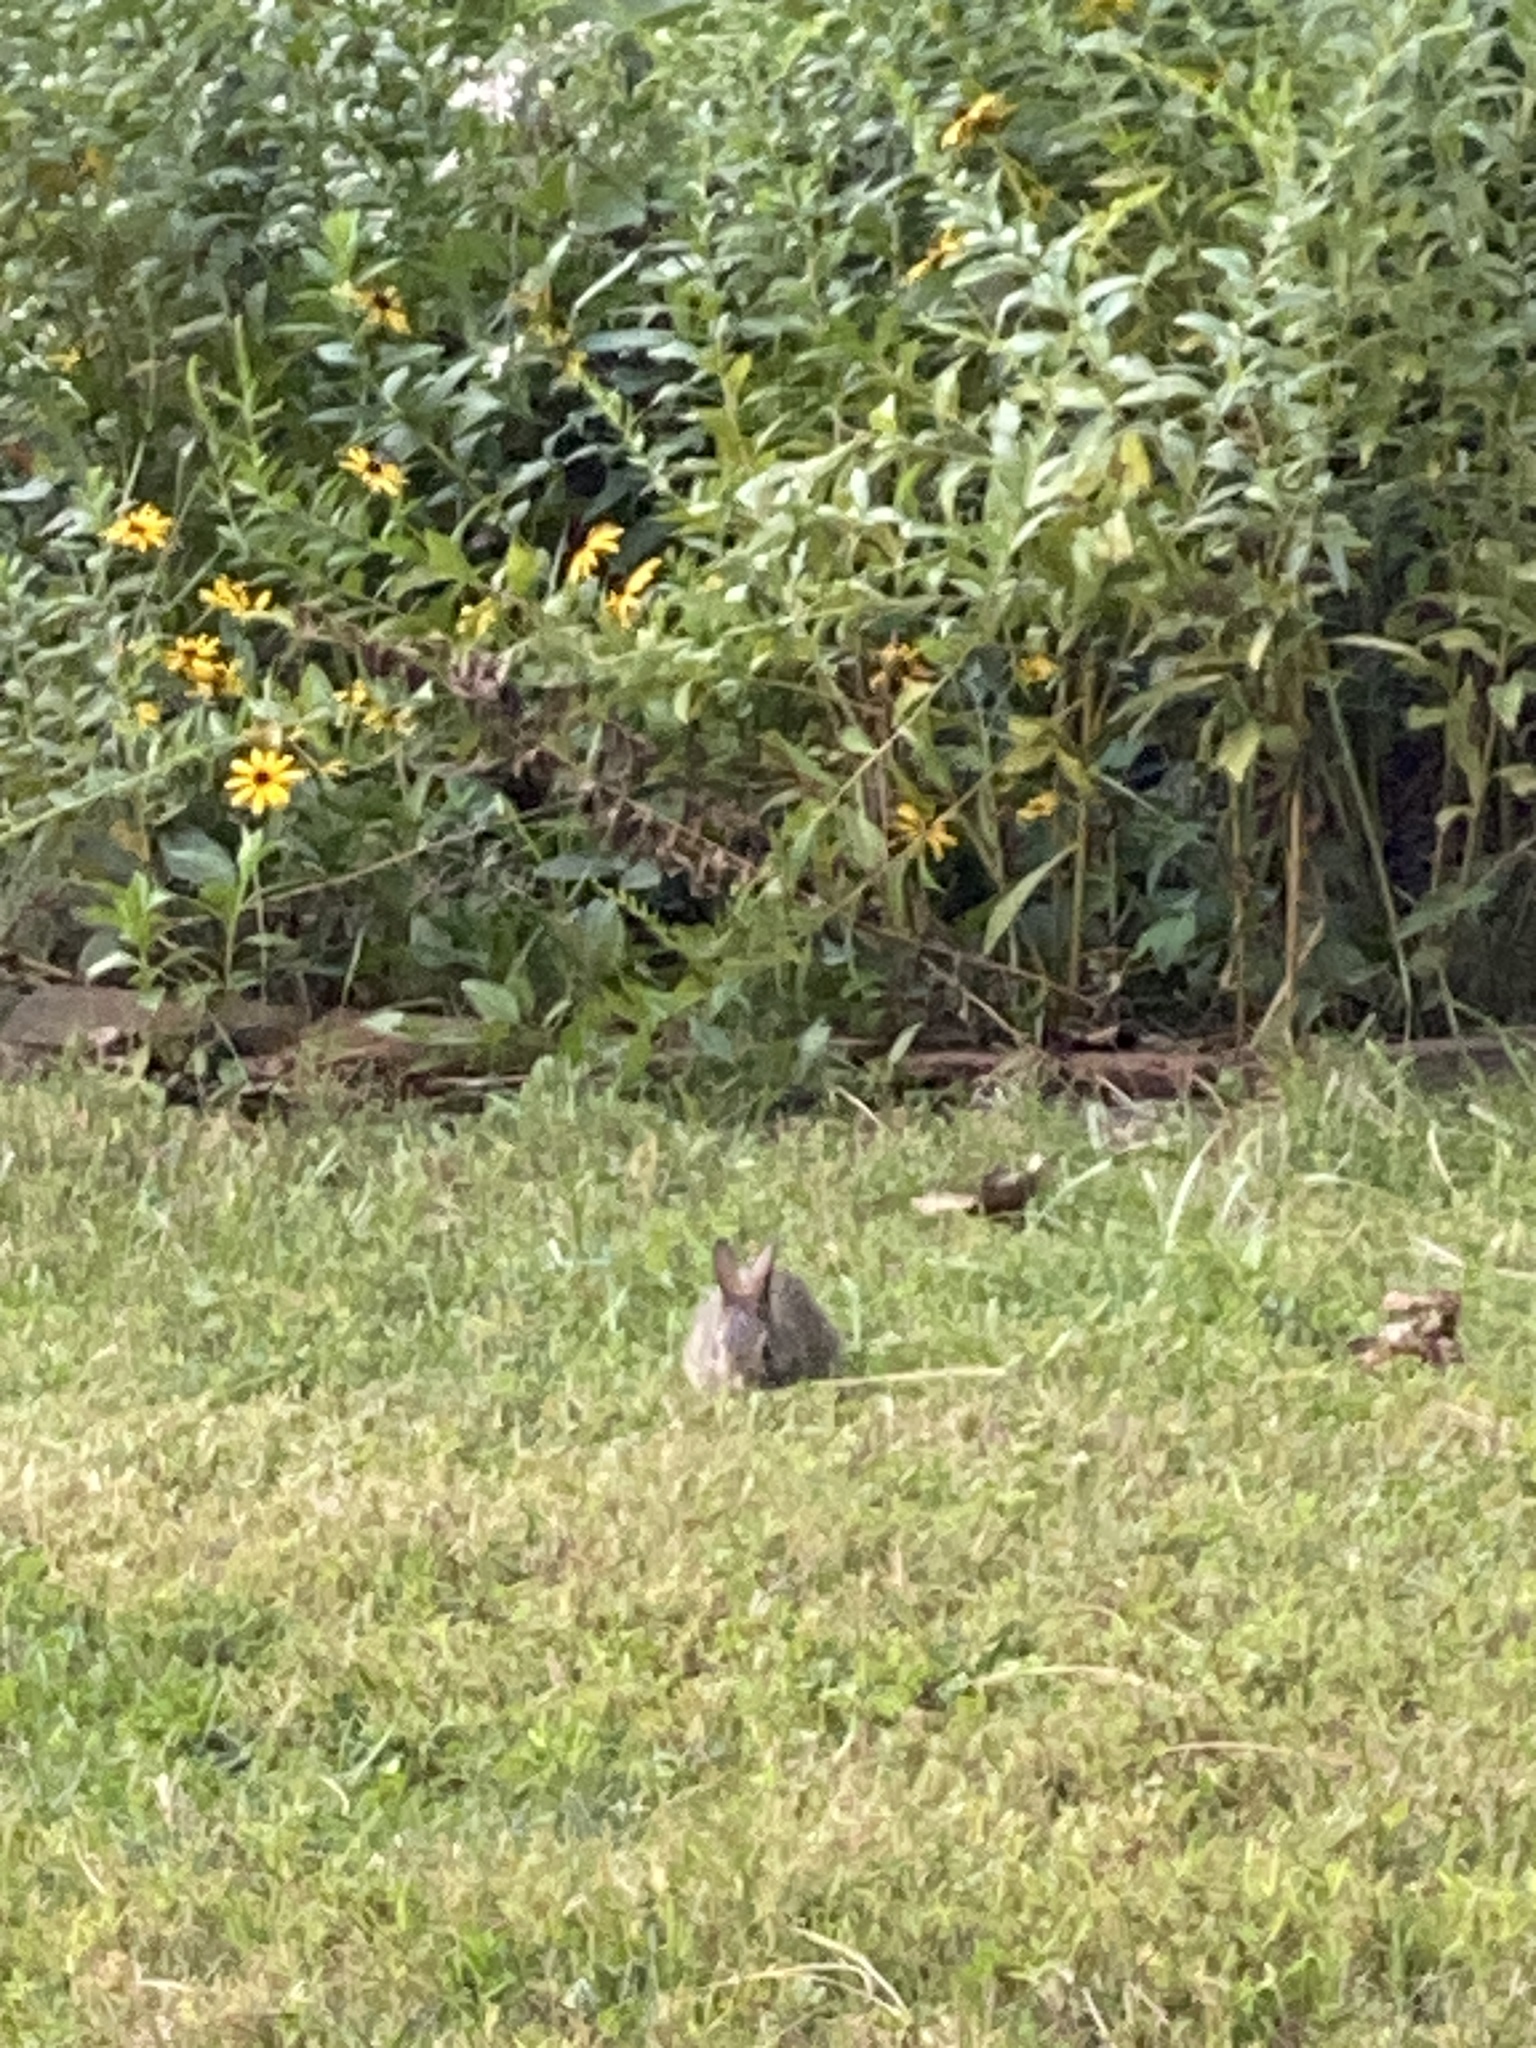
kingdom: Animalia
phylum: Chordata
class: Mammalia
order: Lagomorpha
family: Leporidae
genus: Sylvilagus
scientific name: Sylvilagus floridanus
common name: Eastern cottontail
